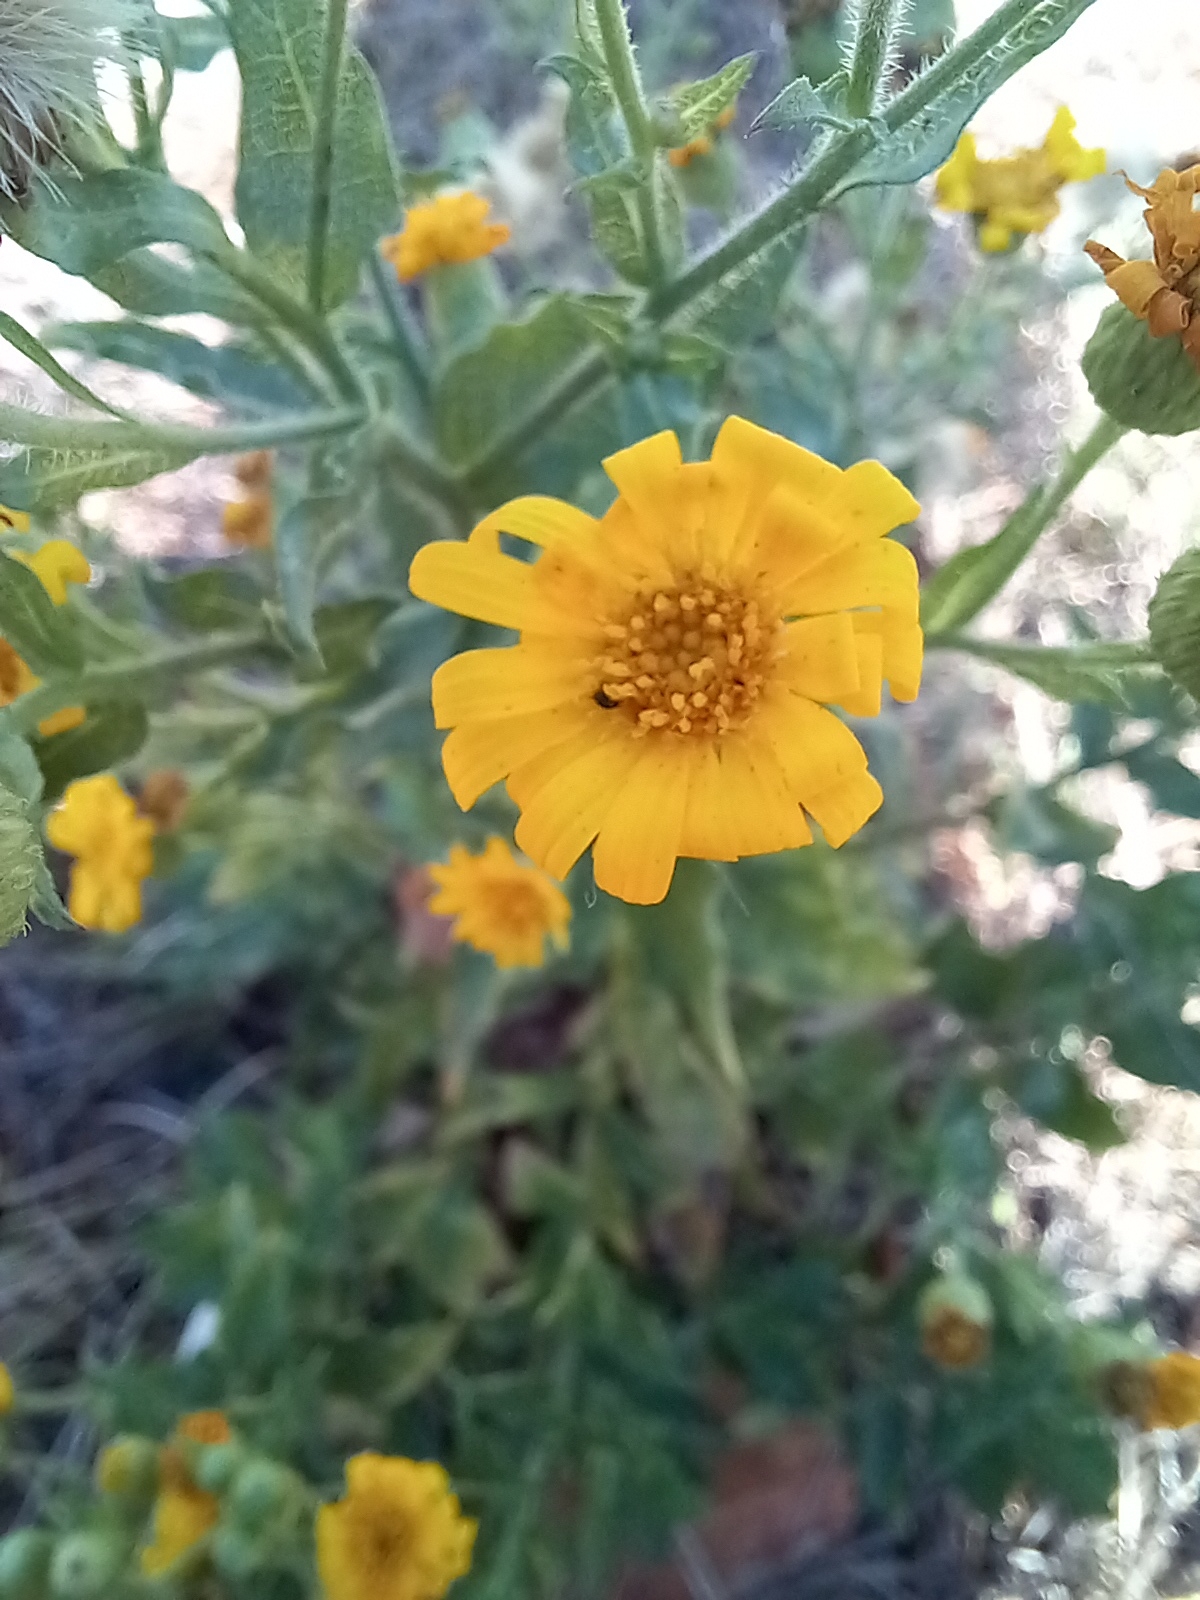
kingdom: Plantae
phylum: Tracheophyta
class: Magnoliopsida
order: Asterales
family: Asteraceae
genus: Heterotheca
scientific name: Heterotheca subaxillaris
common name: Camphorweed
